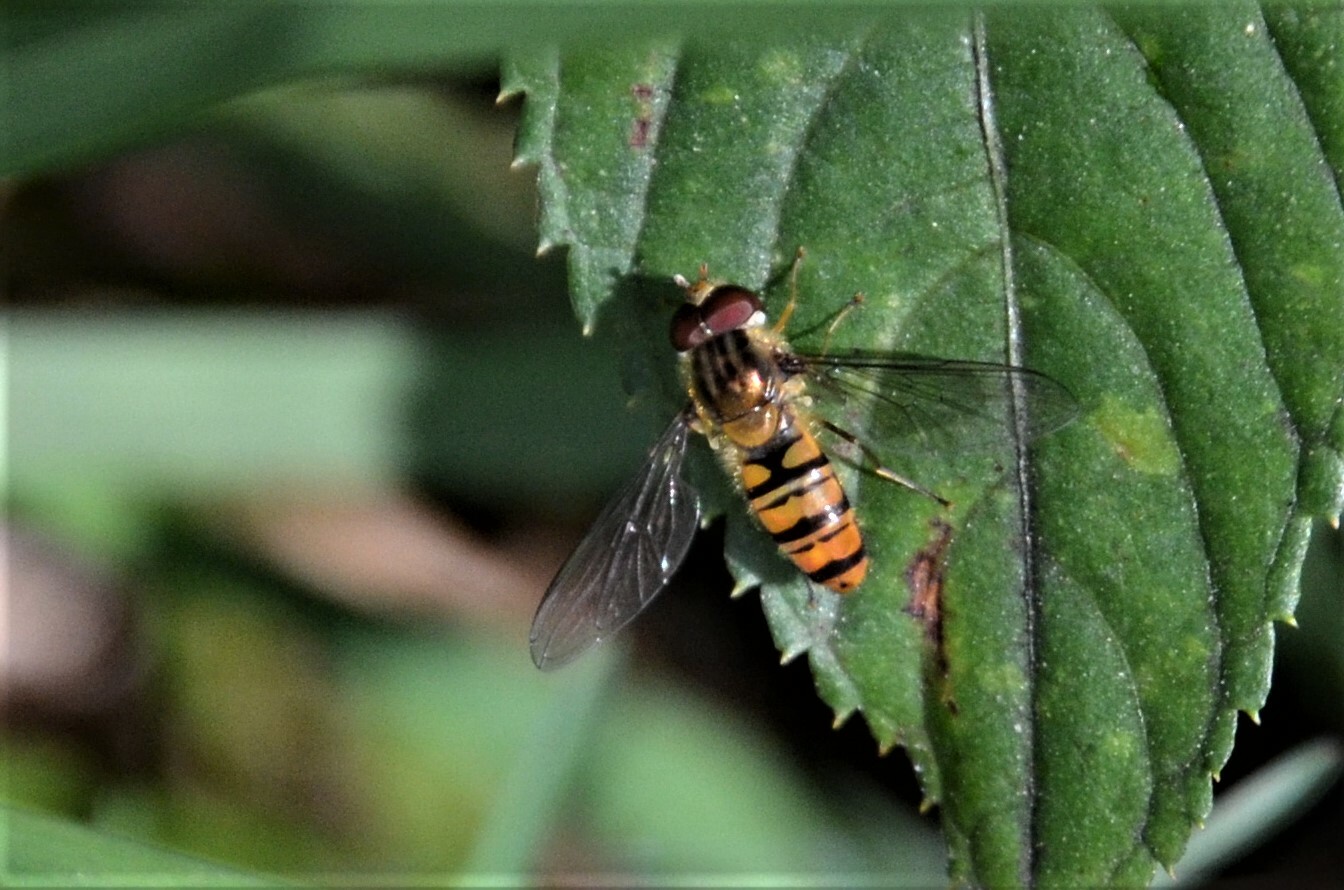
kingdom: Animalia
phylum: Arthropoda
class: Insecta
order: Diptera
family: Syrphidae
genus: Episyrphus
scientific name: Episyrphus balteatus
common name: Marmalade hoverfly
